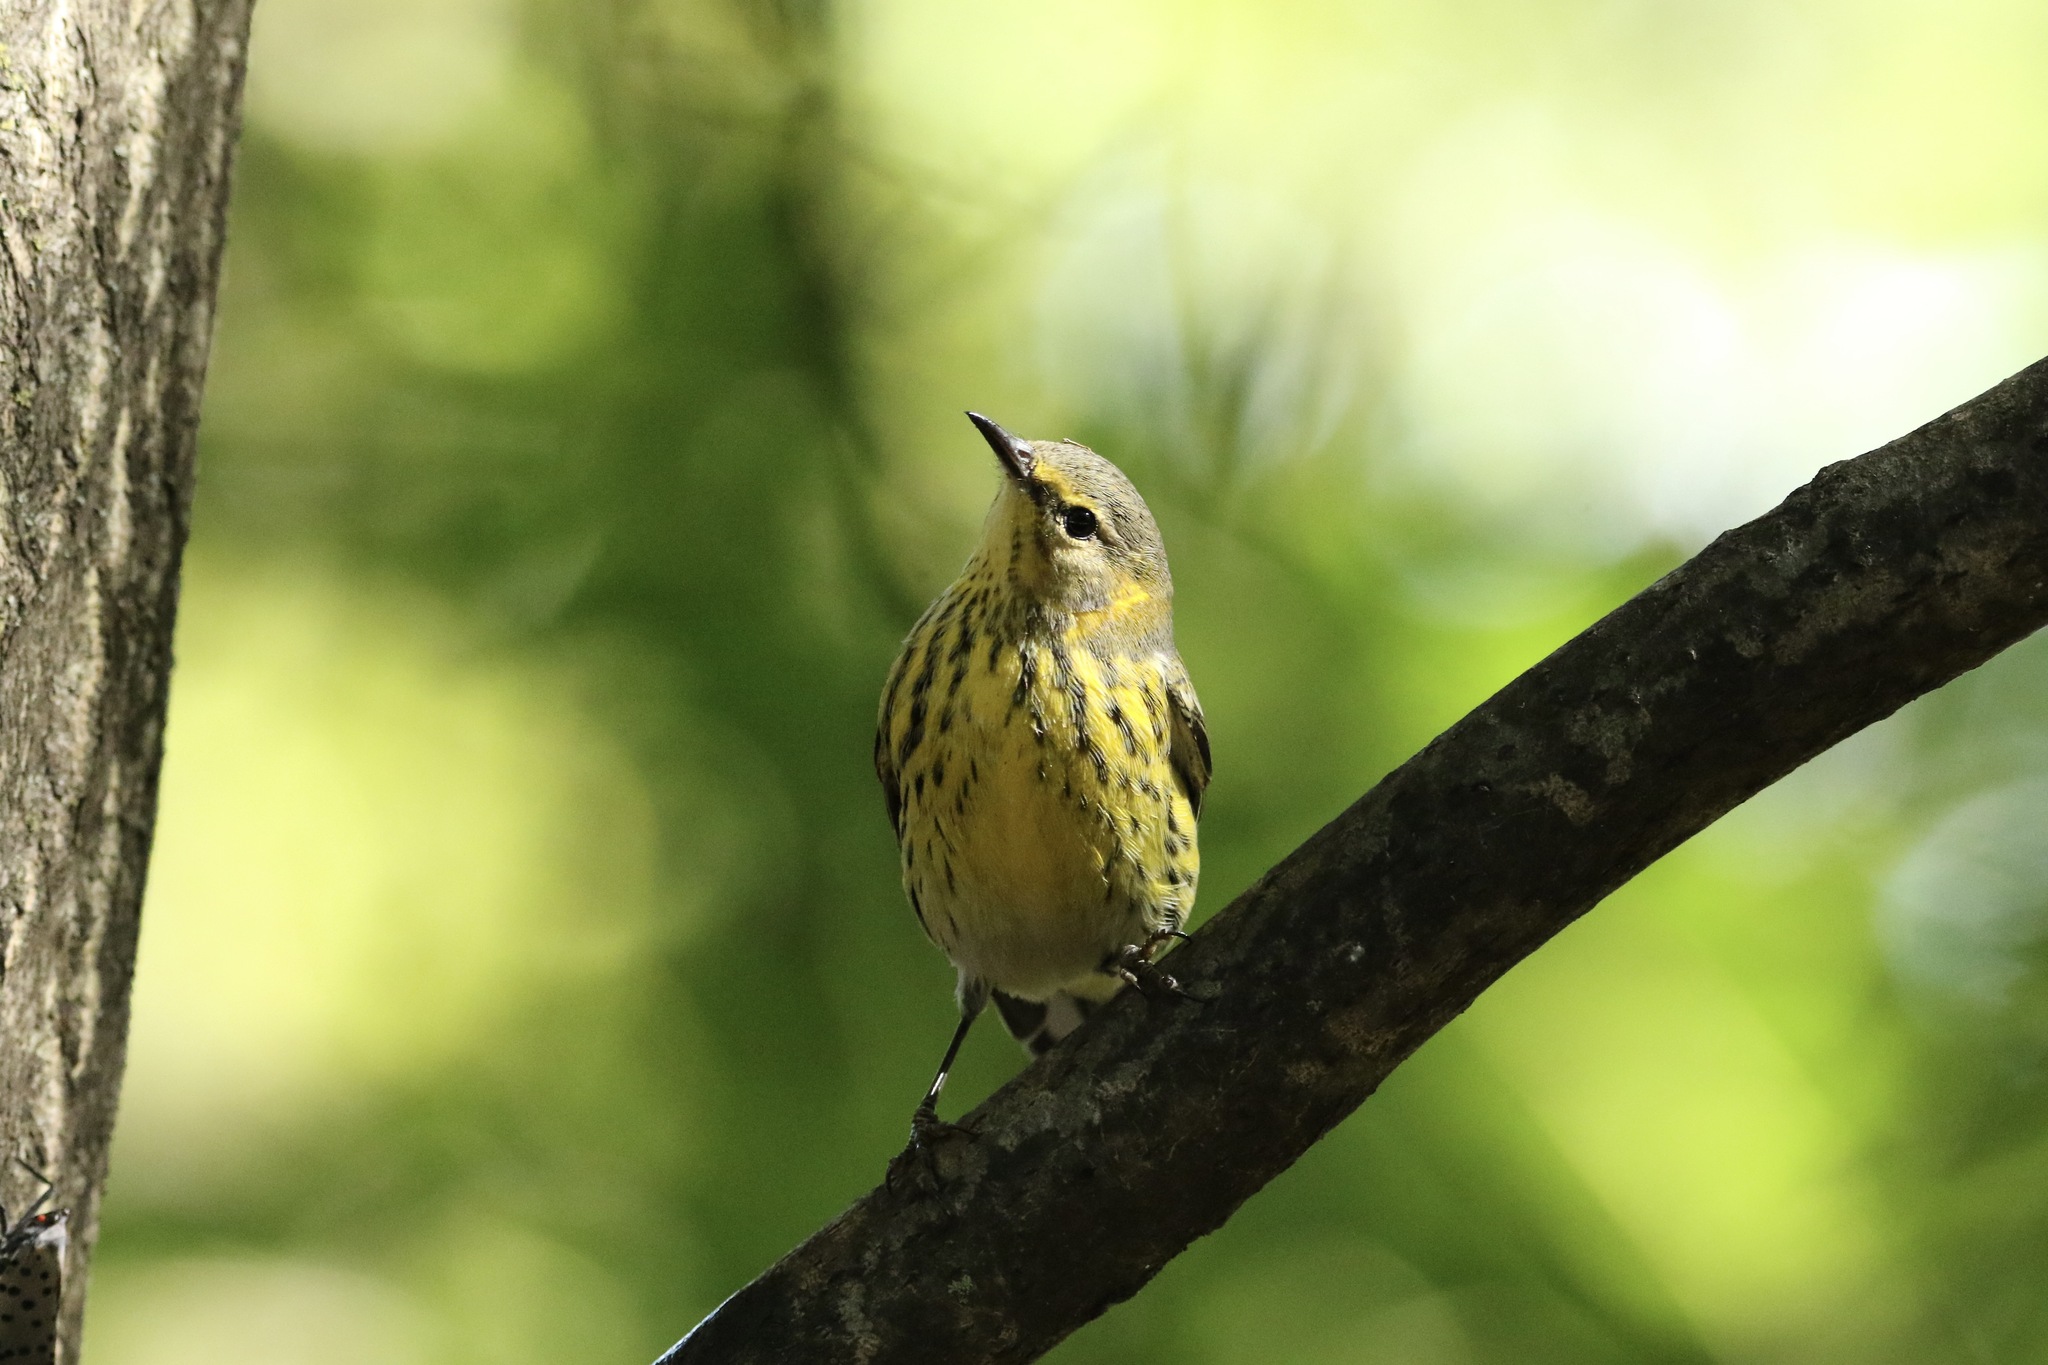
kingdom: Animalia
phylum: Chordata
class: Aves
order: Passeriformes
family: Parulidae
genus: Setophaga
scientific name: Setophaga tigrina
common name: Cape may warbler
